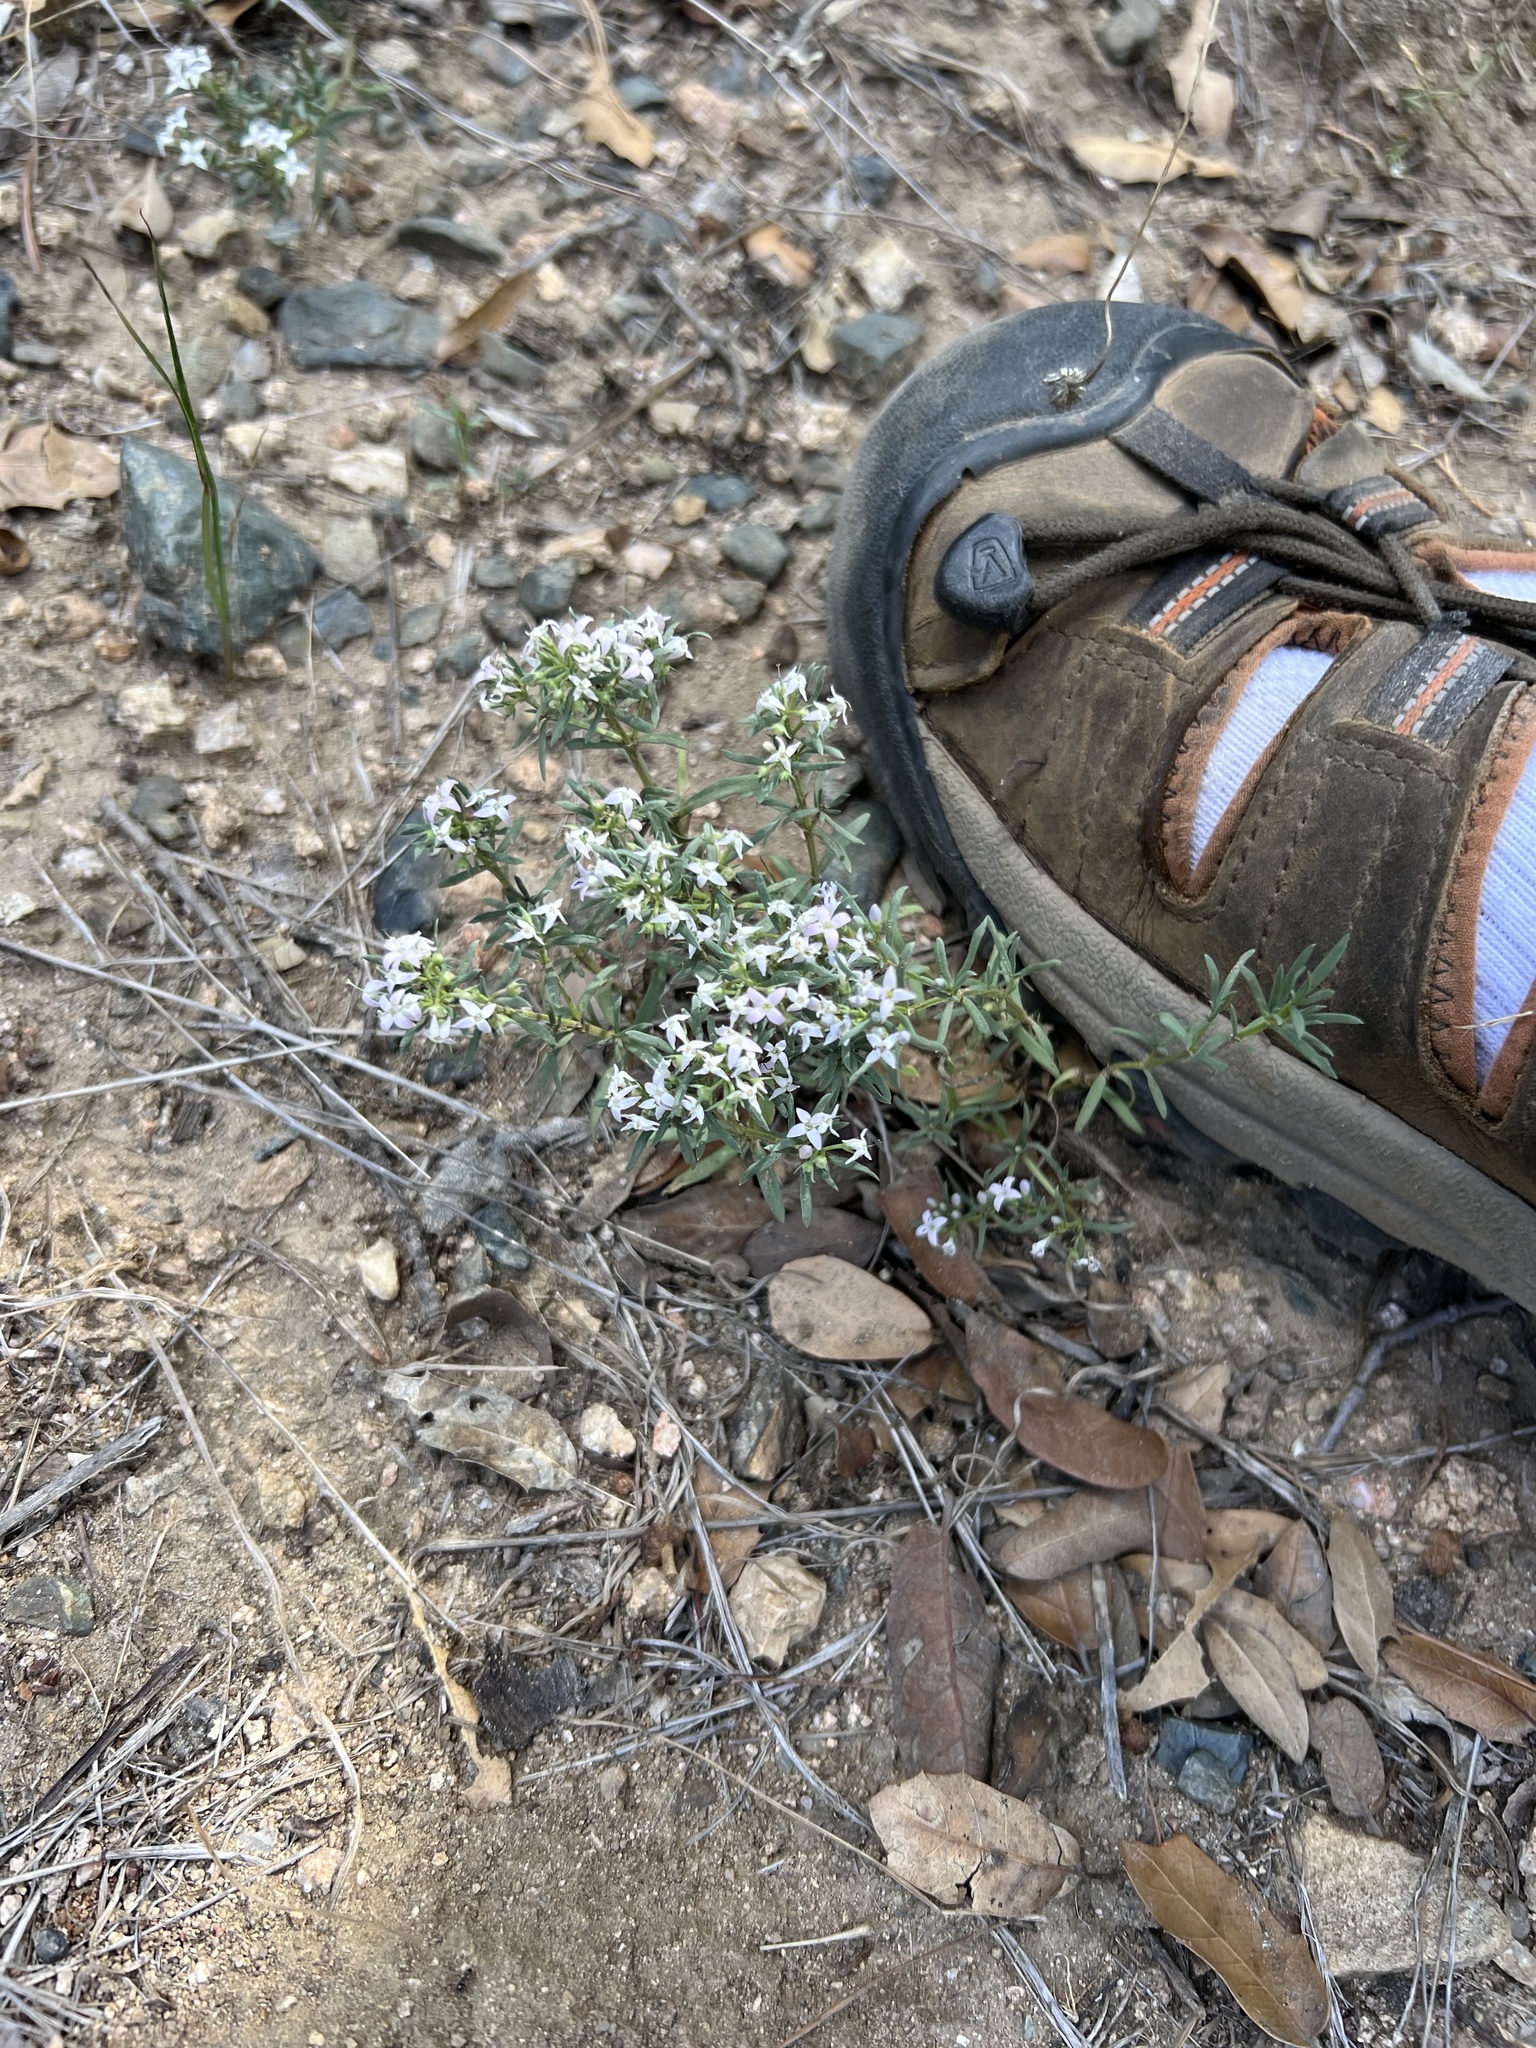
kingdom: Plantae
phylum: Tracheophyta
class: Magnoliopsida
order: Gentianales
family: Rubiaceae
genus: Houstonia
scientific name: Houstonia wrightii
